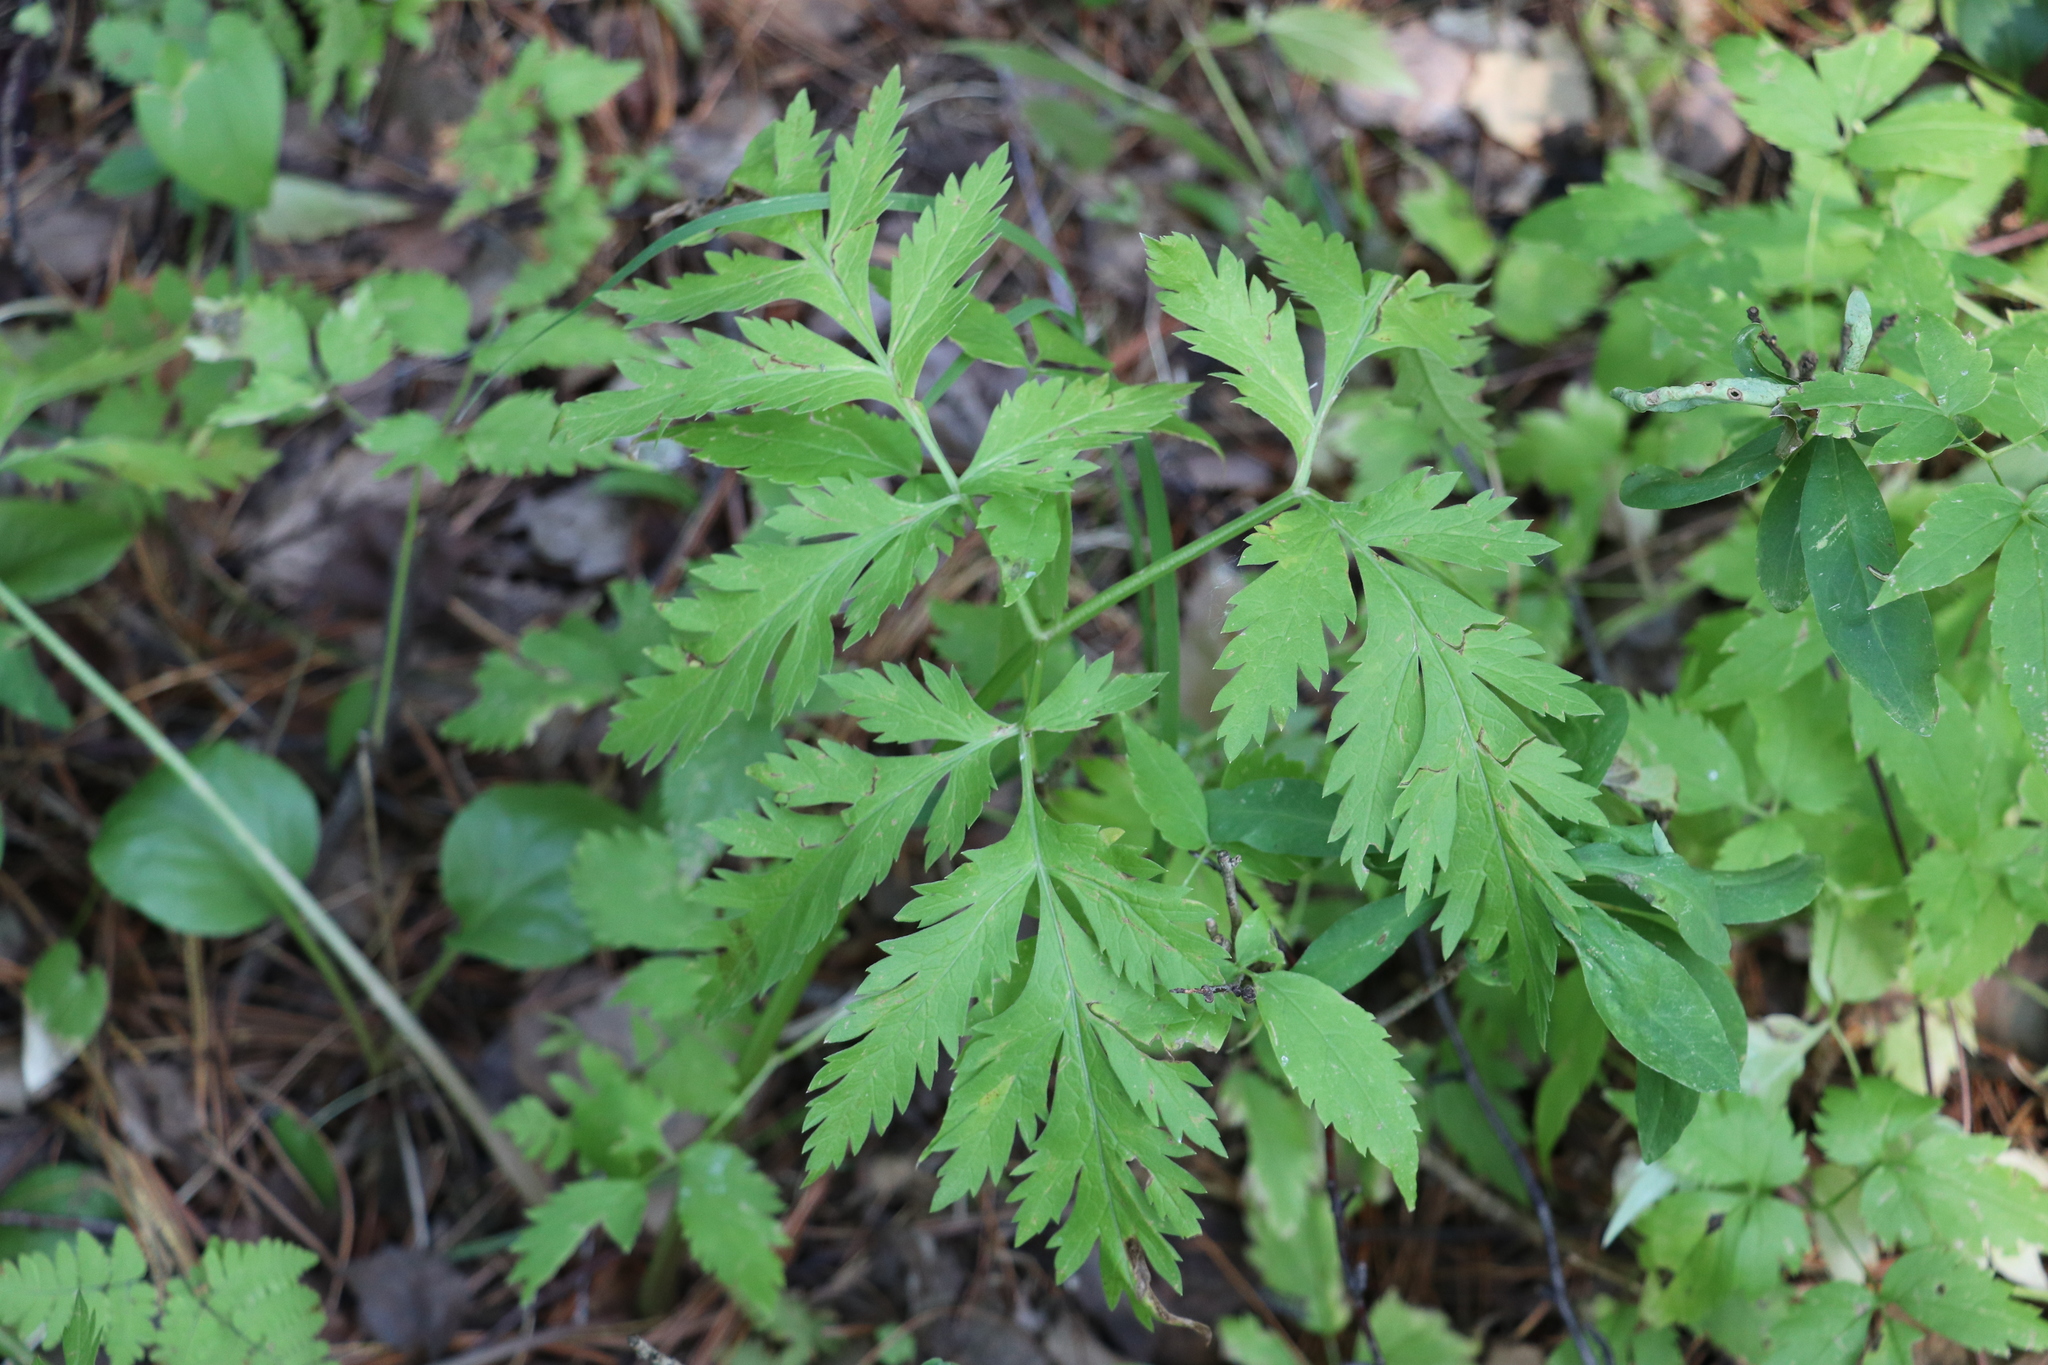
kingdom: Plantae
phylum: Tracheophyta
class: Magnoliopsida
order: Apiales
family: Apiaceae
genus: Pleurospermum
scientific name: Pleurospermum uralense
